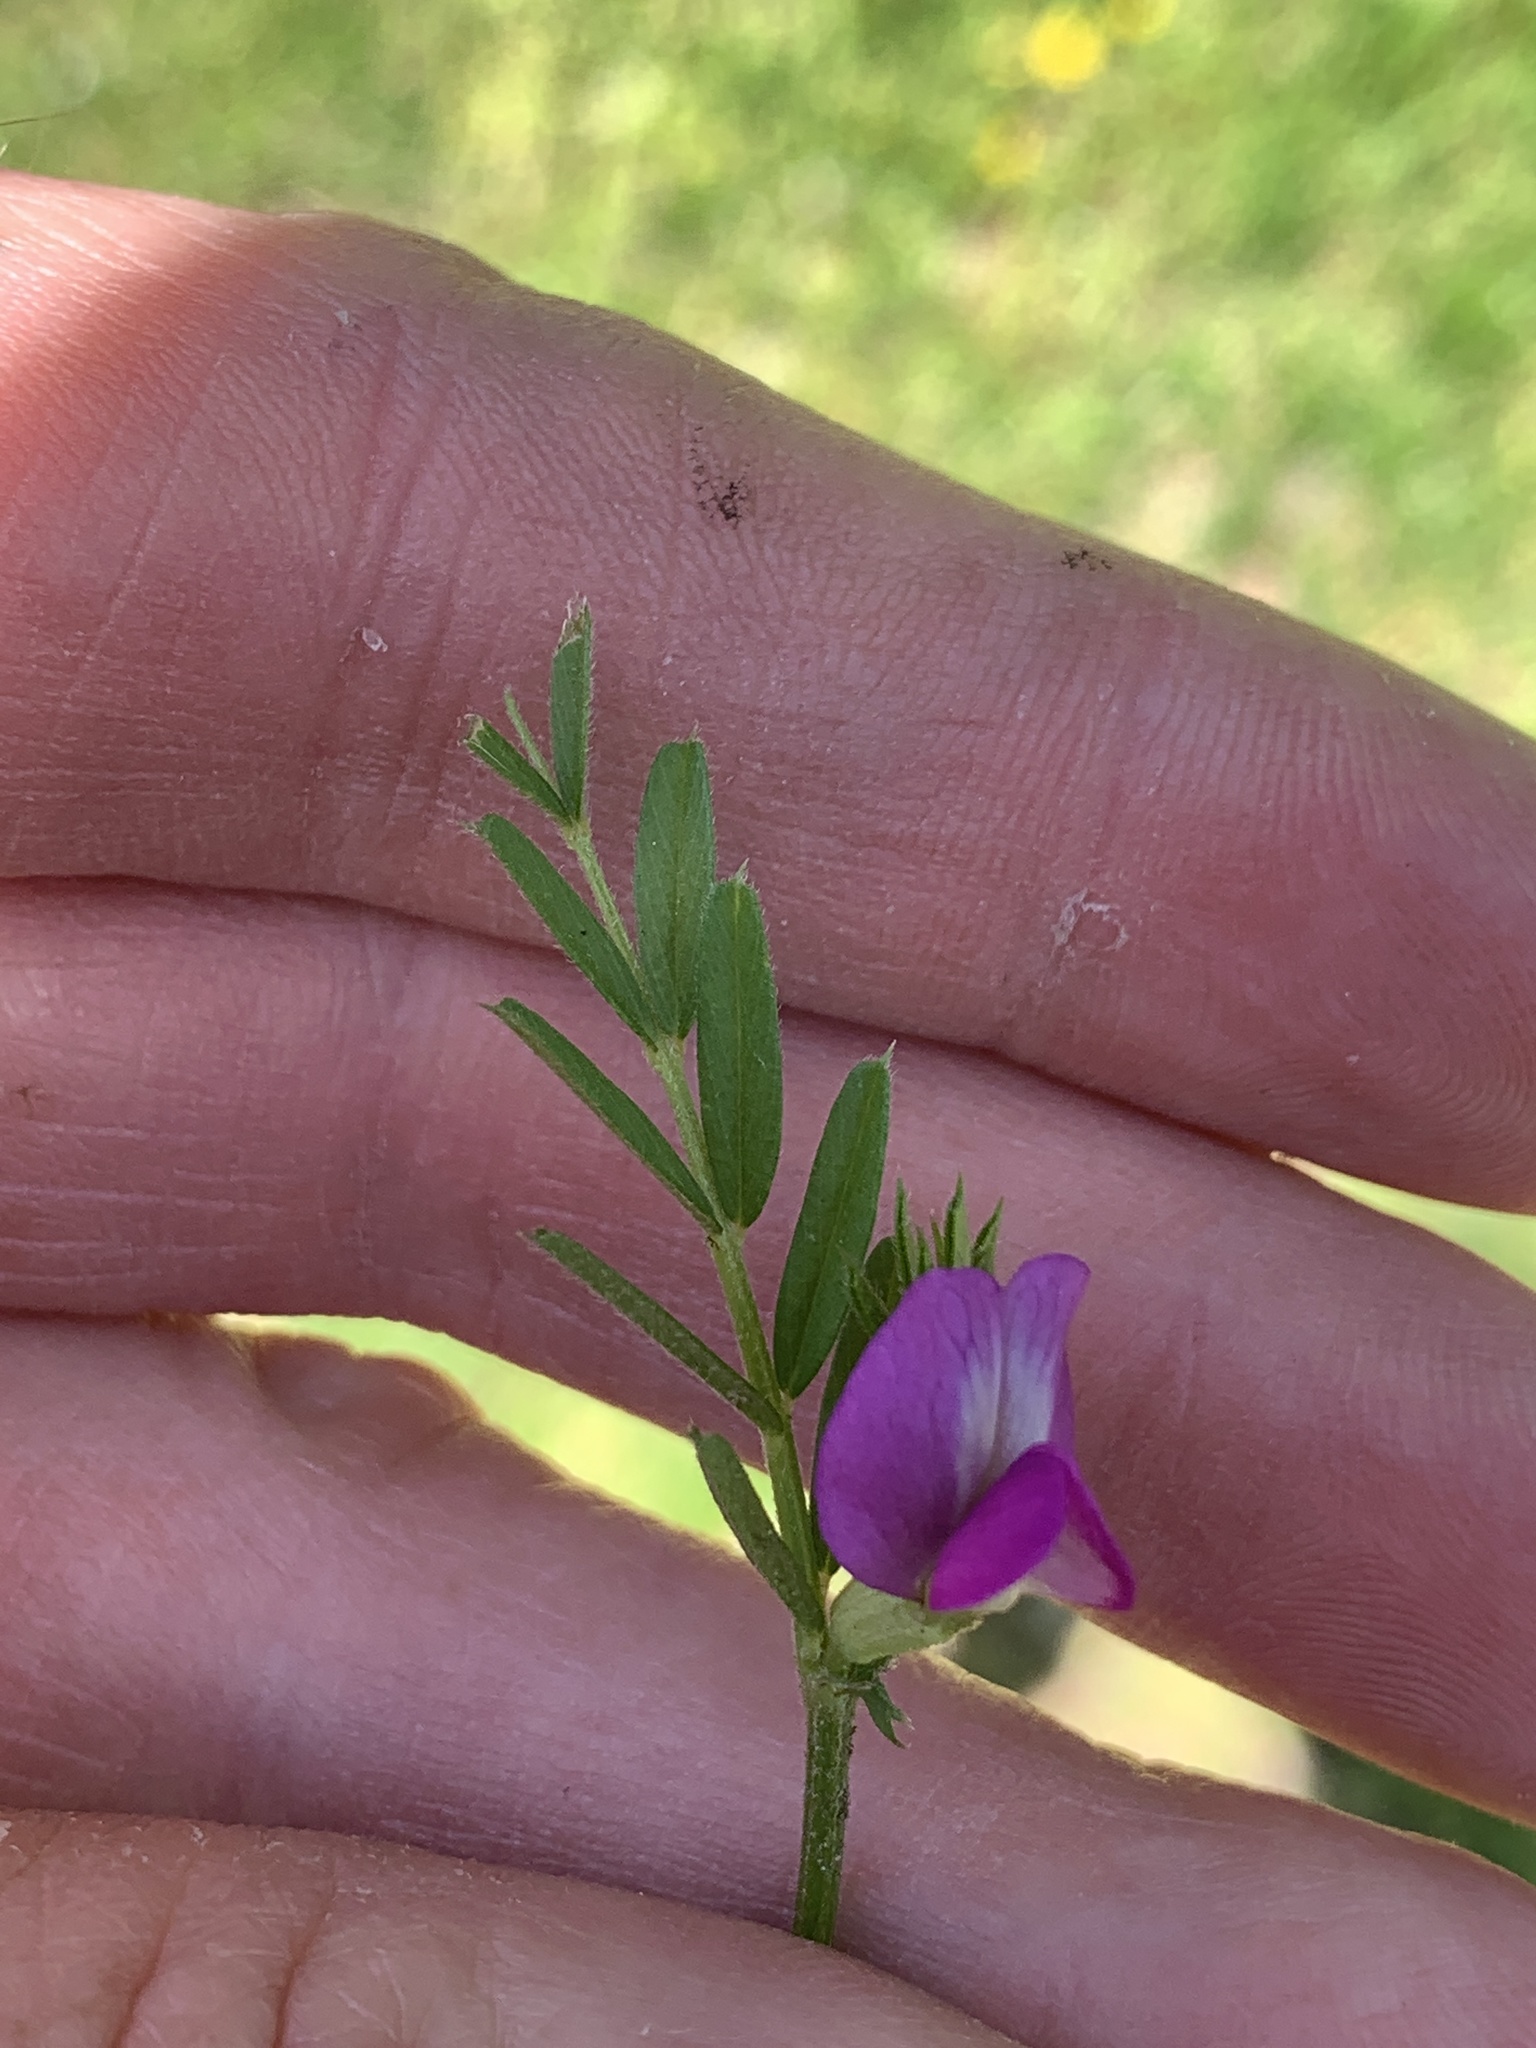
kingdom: Plantae
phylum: Tracheophyta
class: Magnoliopsida
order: Fabales
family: Fabaceae
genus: Vicia
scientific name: Vicia sativa
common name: Garden vetch
